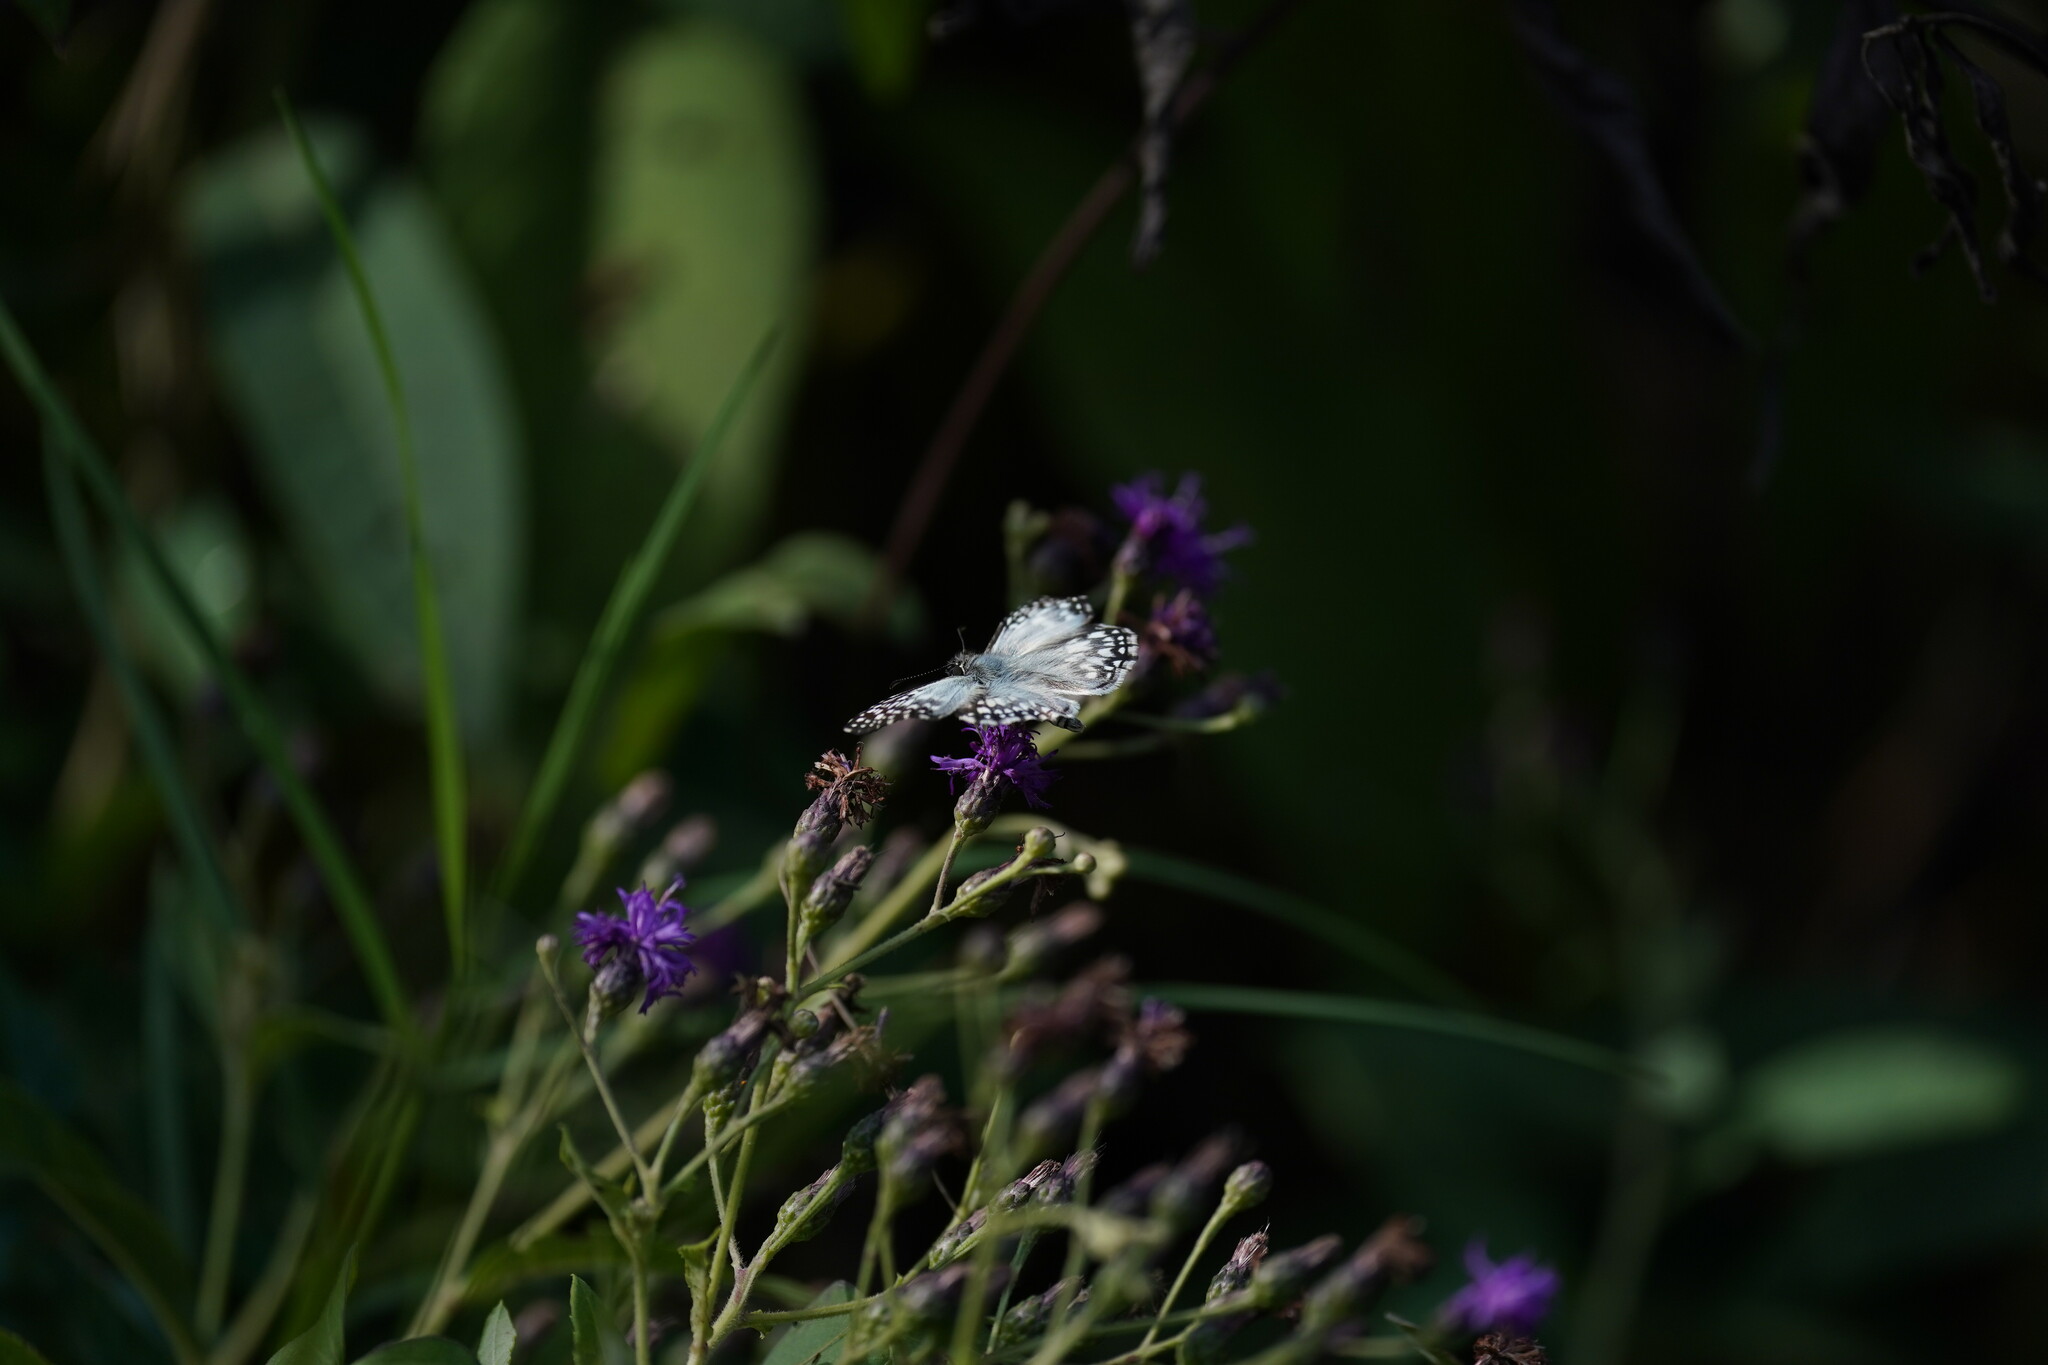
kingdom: Animalia
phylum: Arthropoda
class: Insecta
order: Lepidoptera
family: Hesperiidae
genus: Pyrgus
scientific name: Pyrgus oileus
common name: Tropical checkered-skipper
